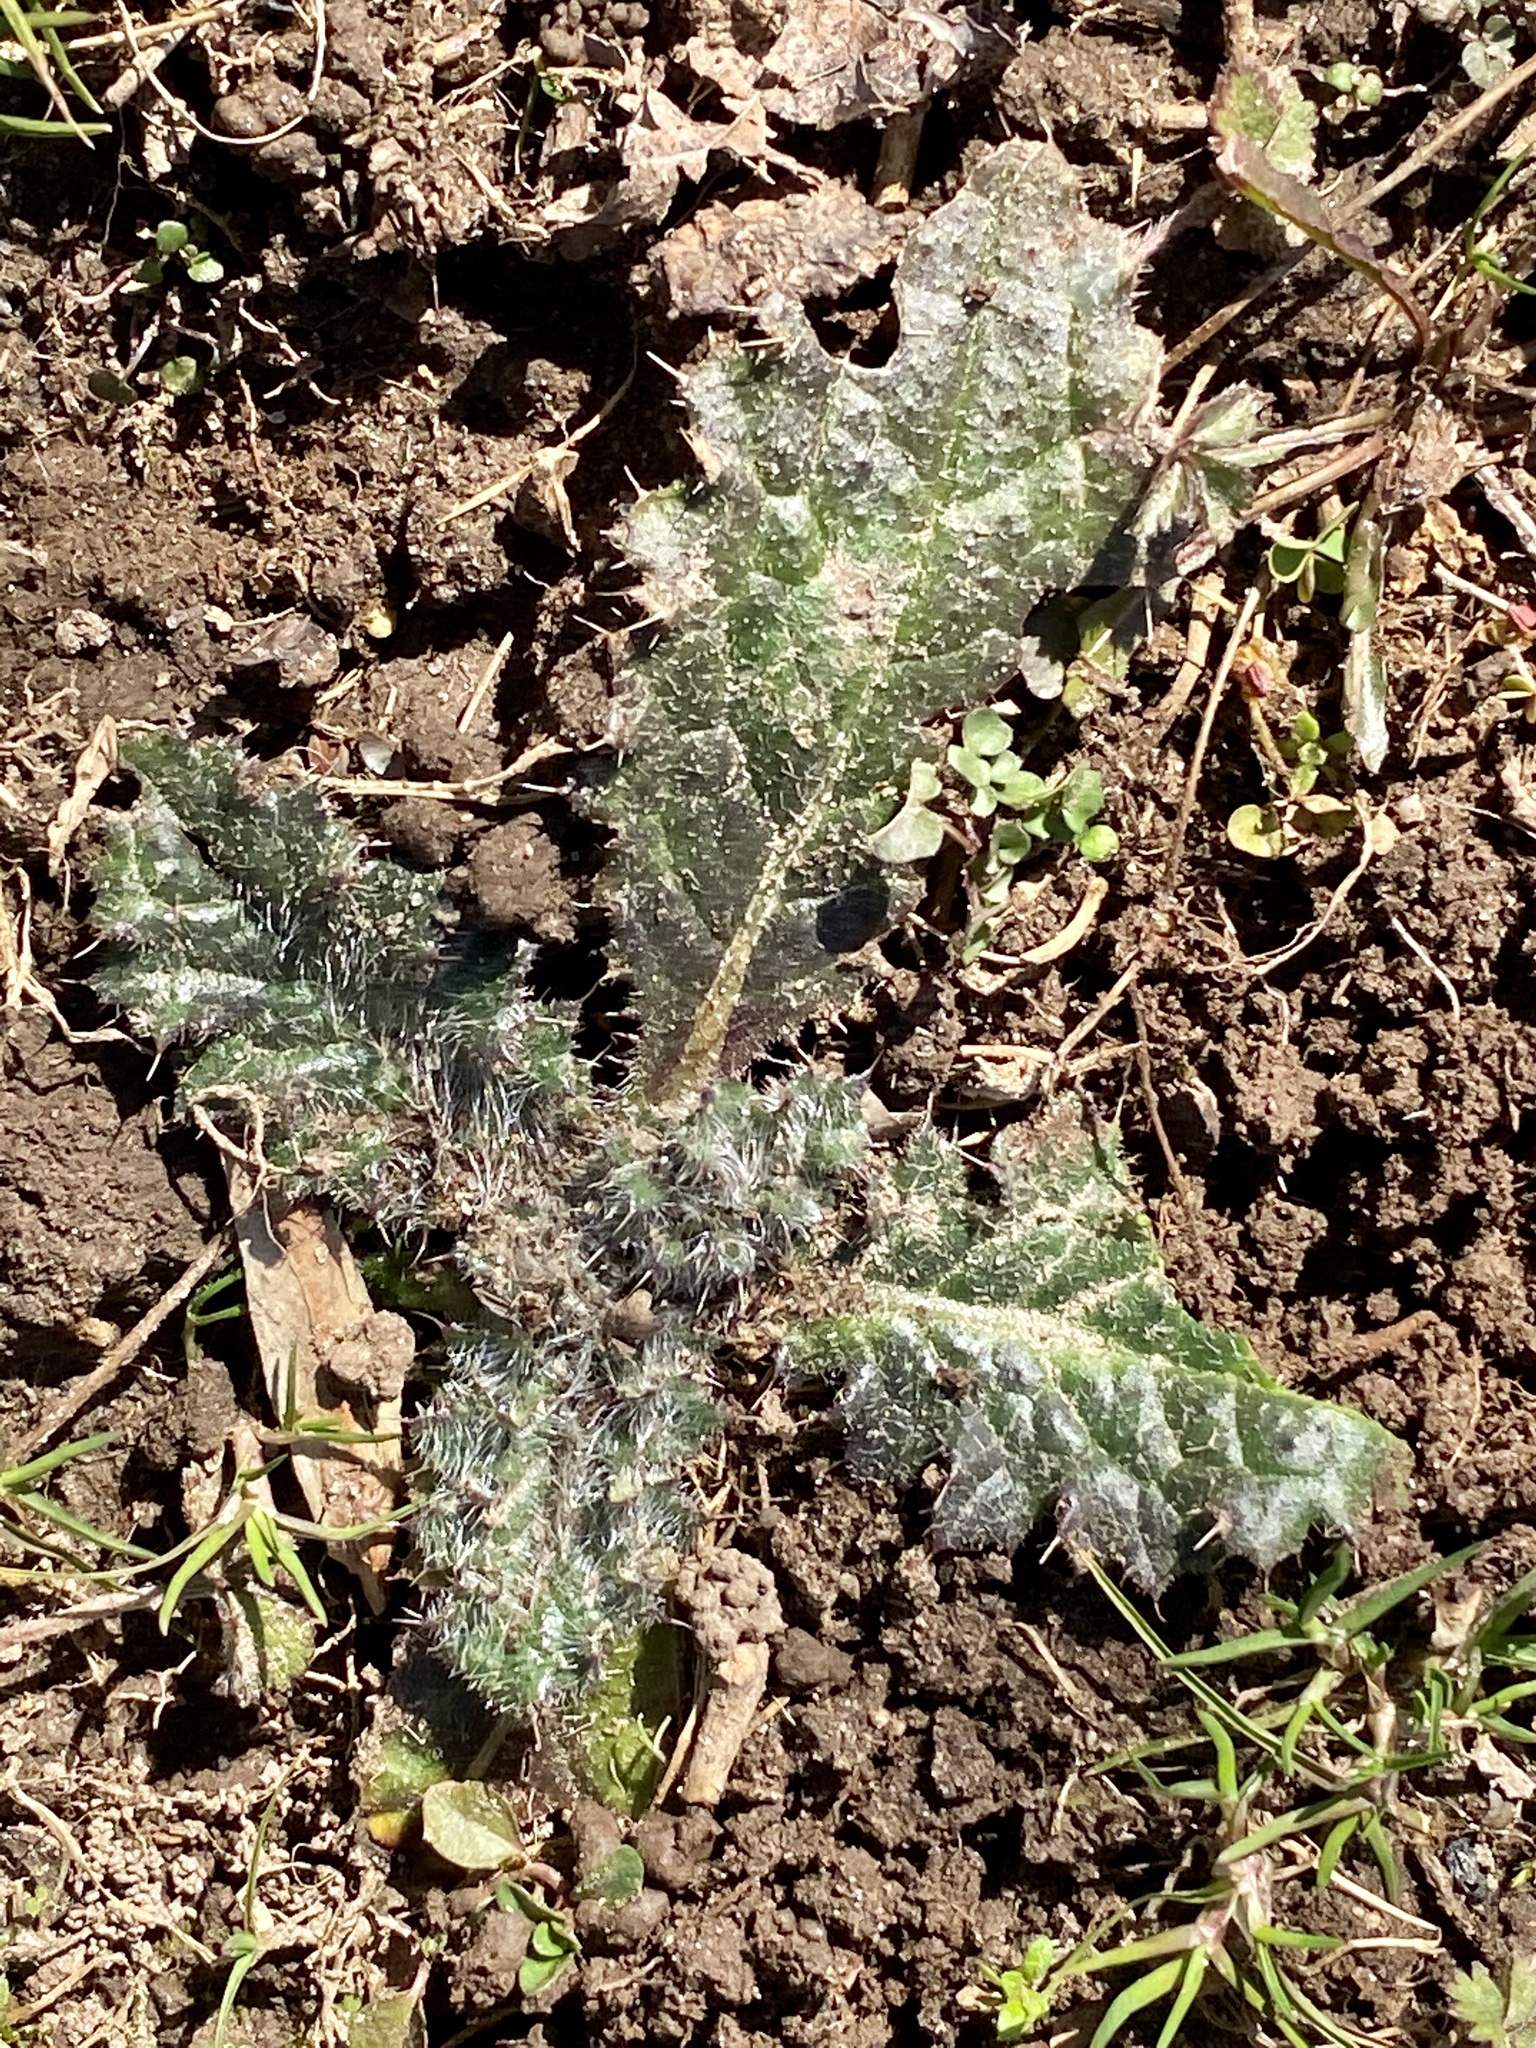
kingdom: Plantae
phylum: Tracheophyta
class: Magnoliopsida
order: Asterales
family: Asteraceae
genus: Cirsium
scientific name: Cirsium vulgare
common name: Bull thistle
